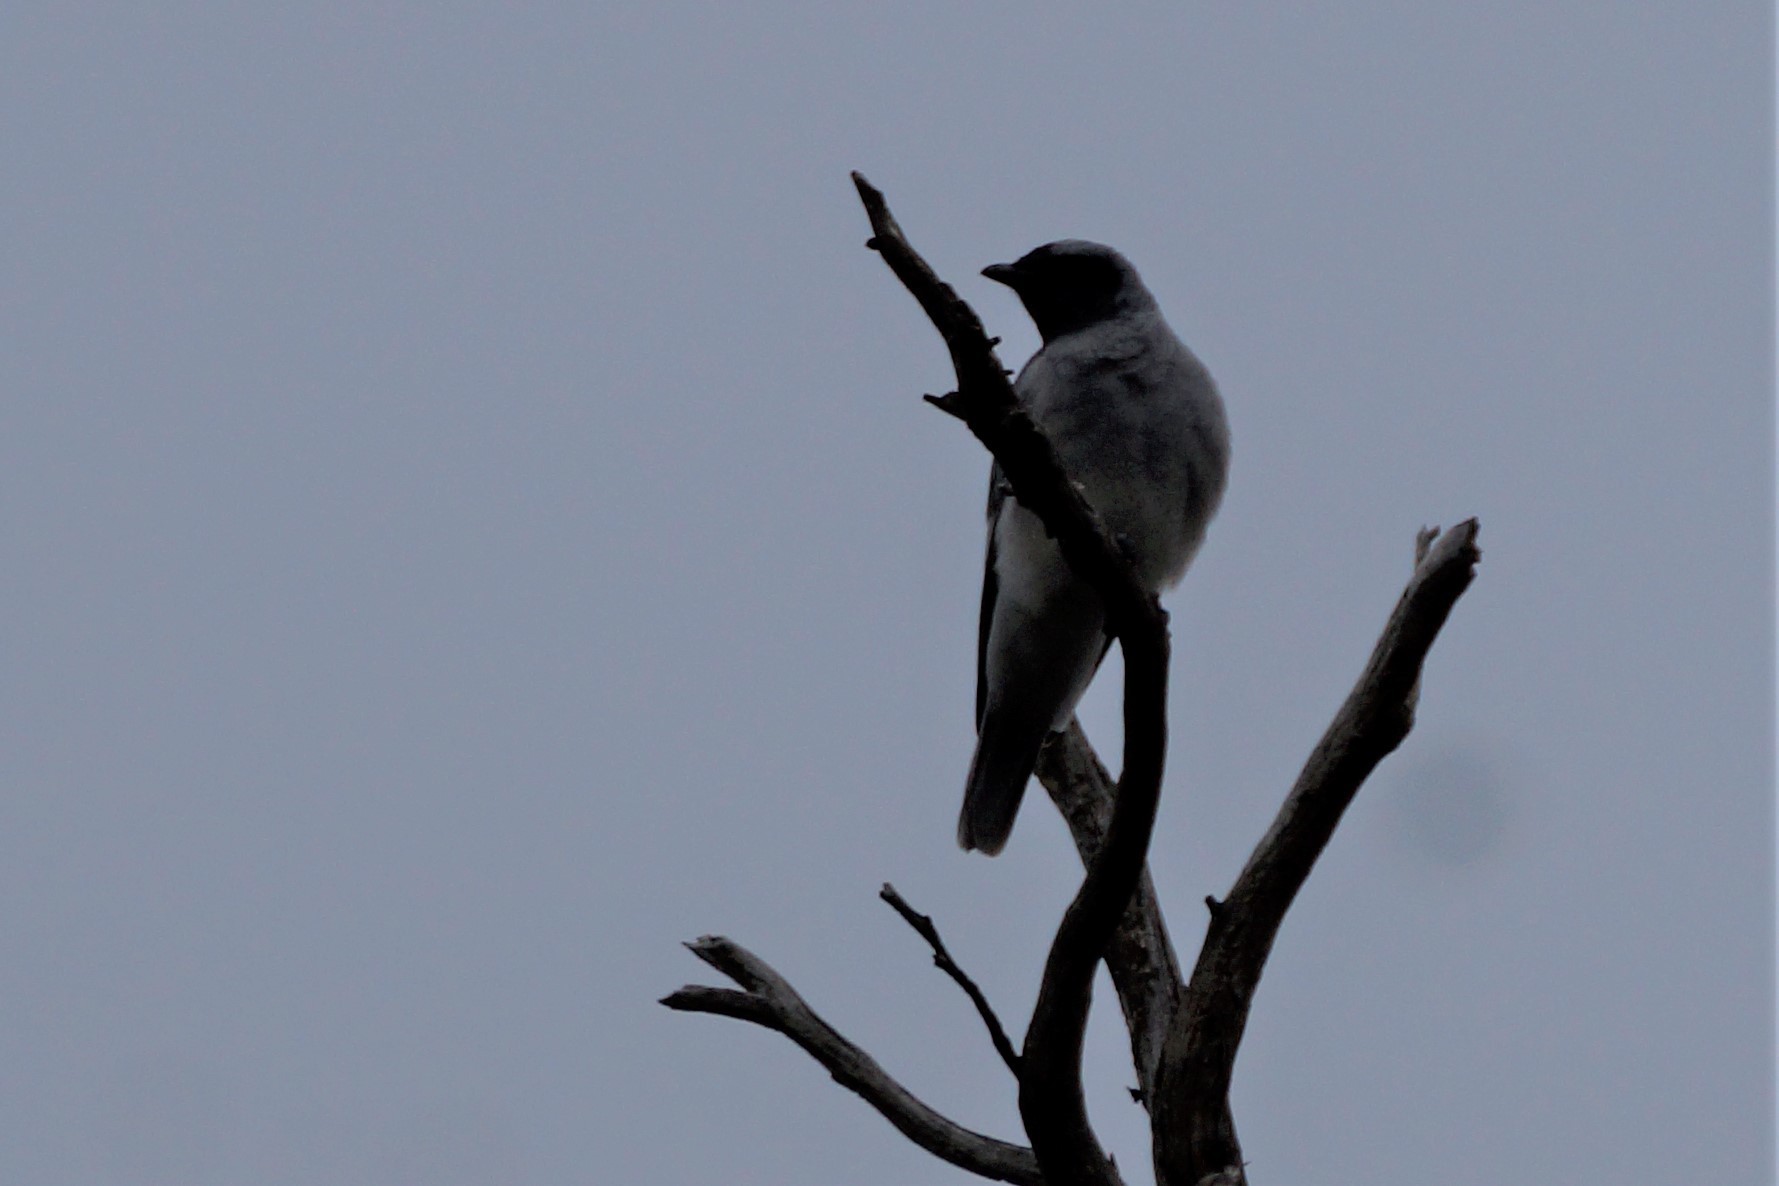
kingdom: Animalia
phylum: Chordata
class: Aves
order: Passeriformes
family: Campephagidae
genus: Coracina
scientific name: Coracina novaehollandiae
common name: Black-faced cuckooshrike
